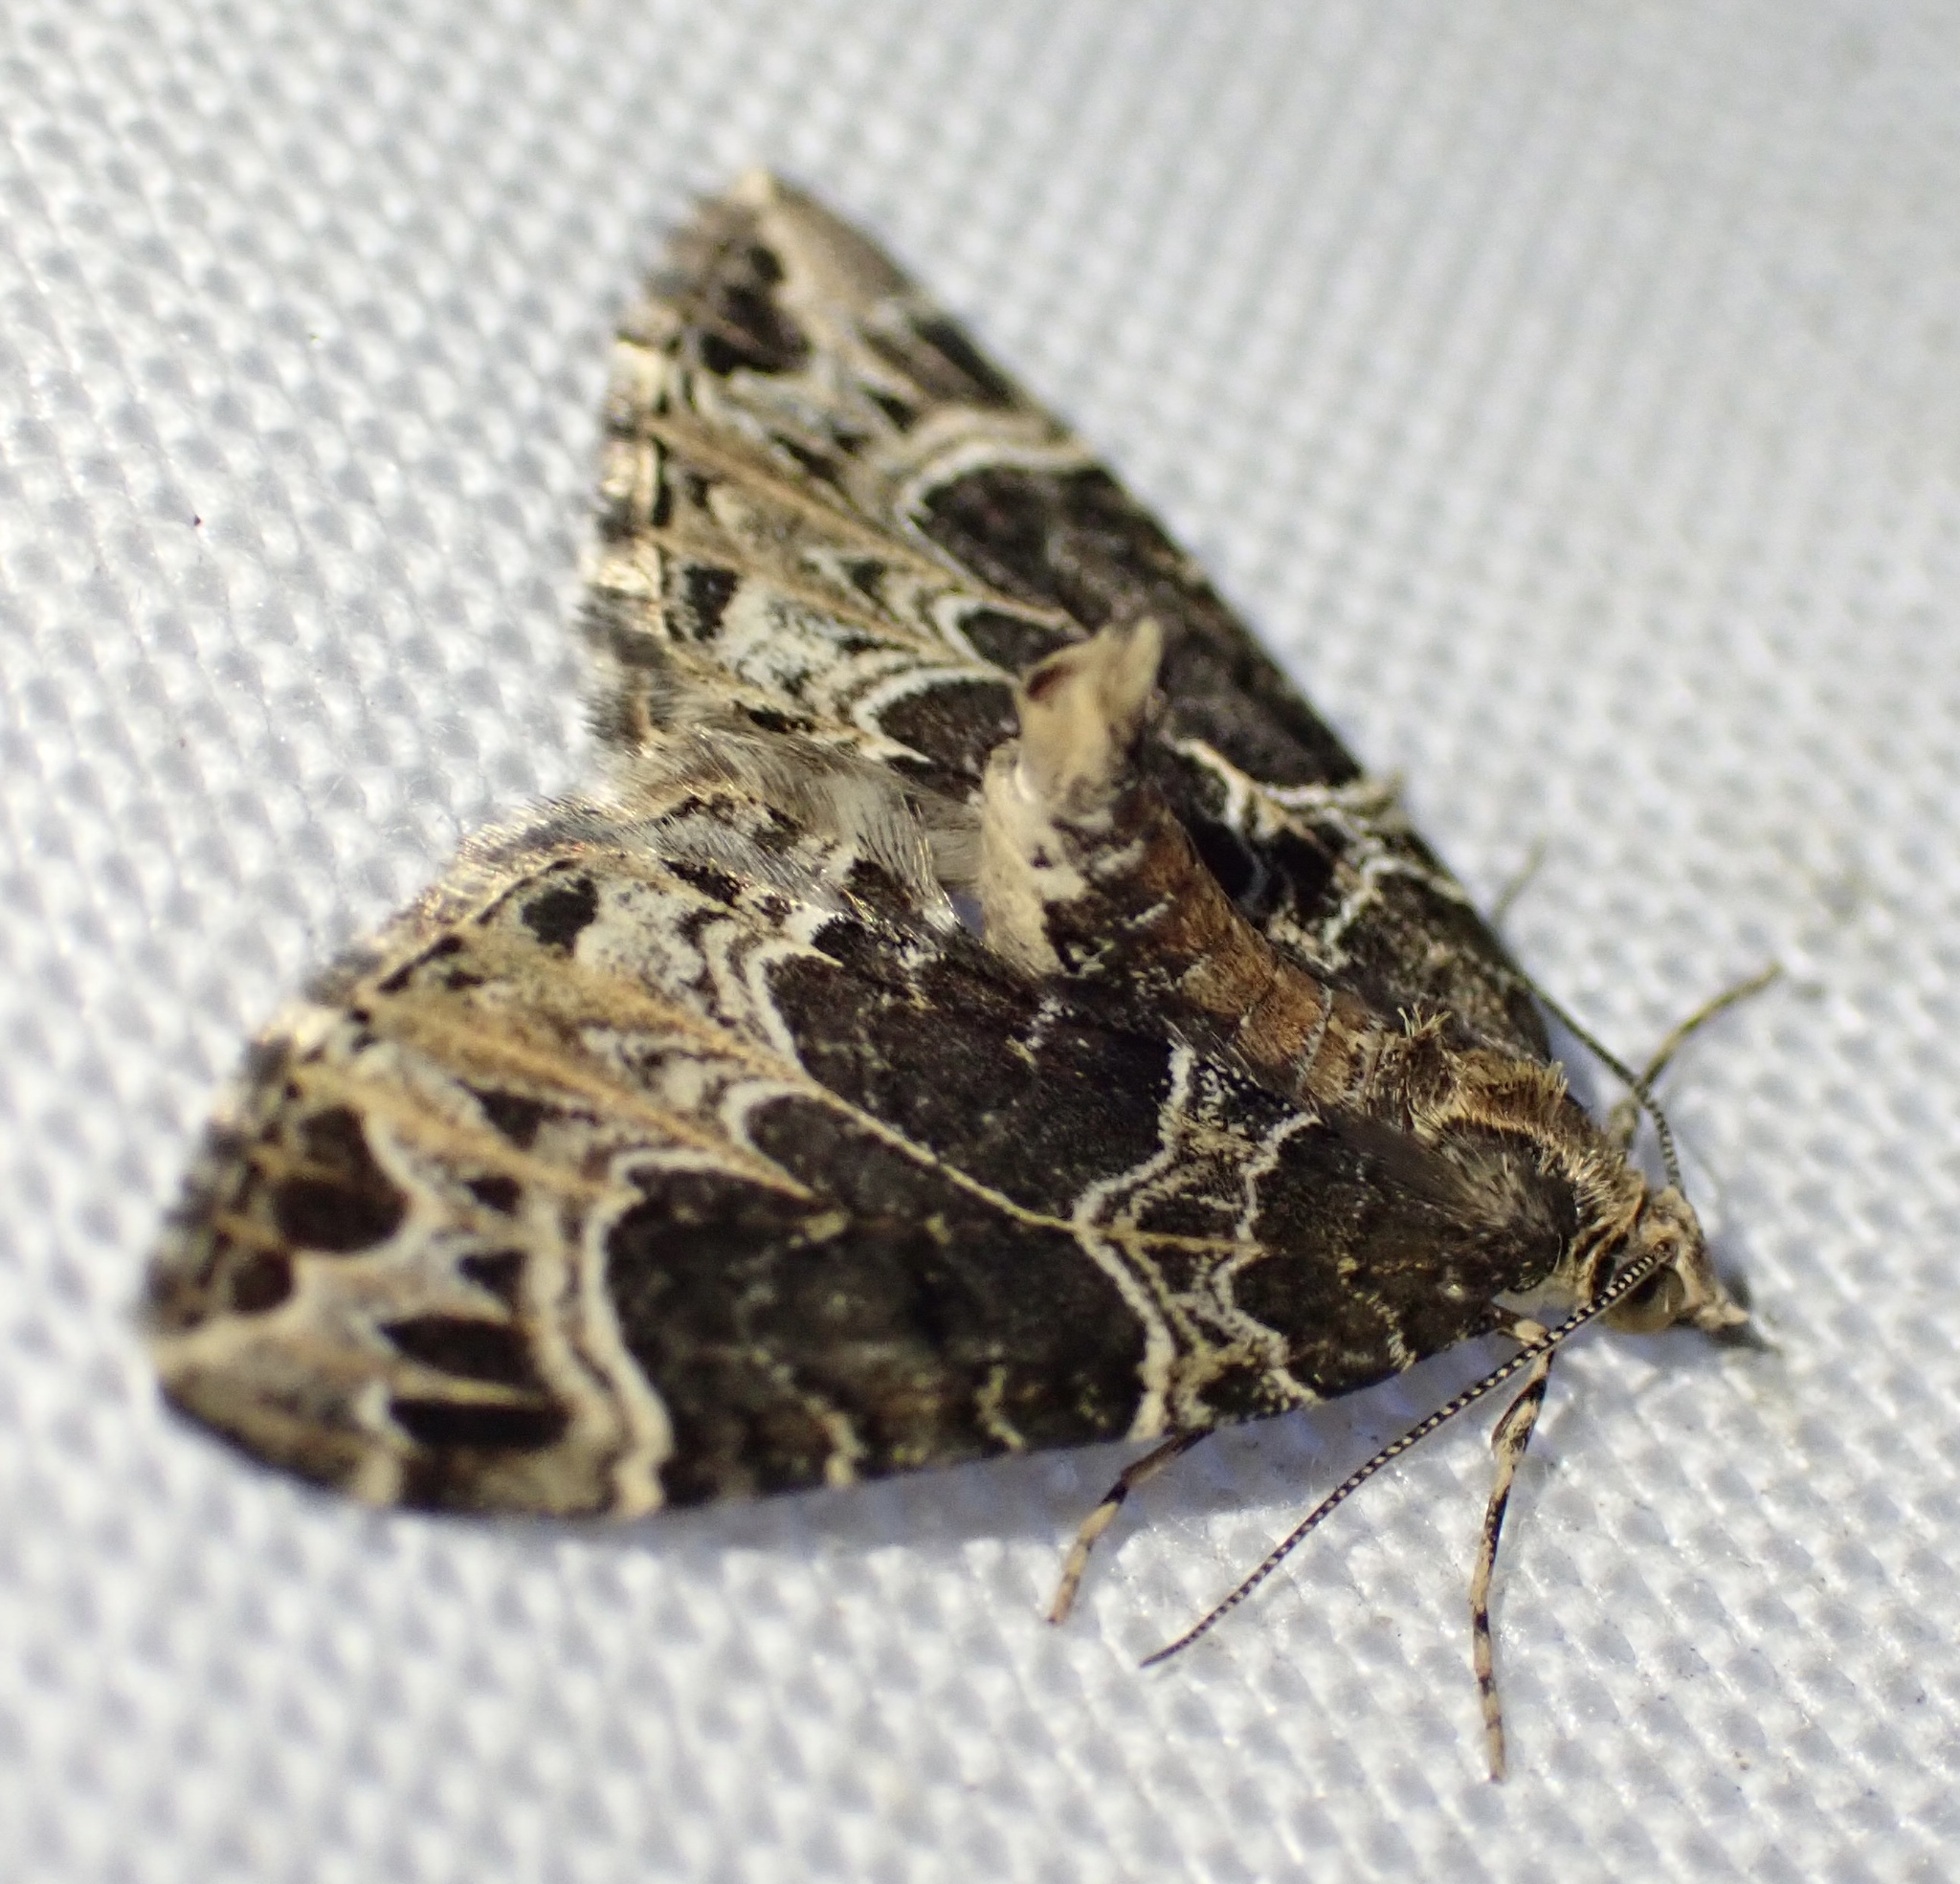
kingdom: Animalia
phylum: Arthropoda
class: Insecta
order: Lepidoptera
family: Geometridae
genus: Ecliptopera
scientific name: Ecliptopera silaceata
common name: Small phoenix
